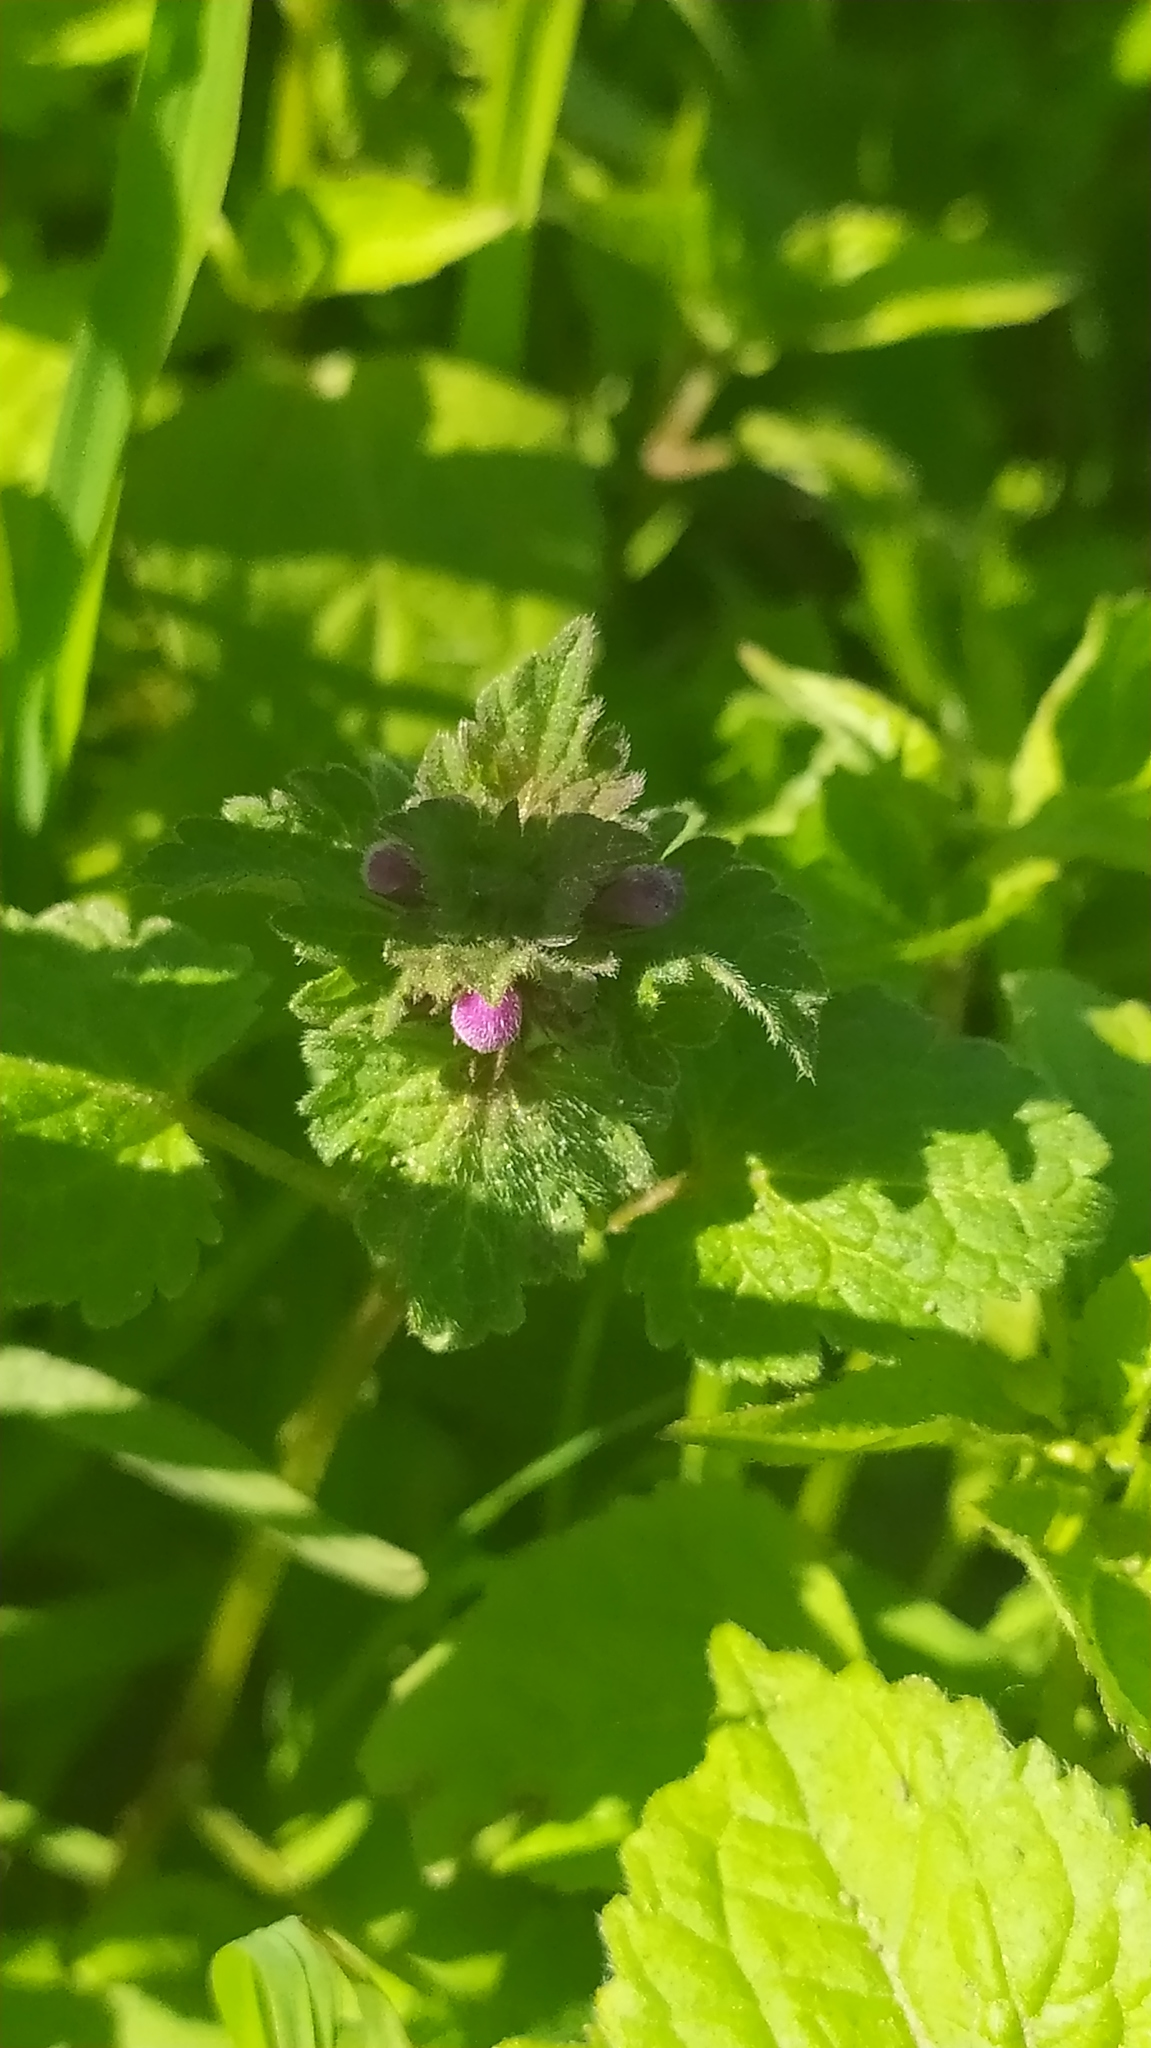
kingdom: Plantae
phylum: Tracheophyta
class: Magnoliopsida
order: Lamiales
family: Lamiaceae
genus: Lamium
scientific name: Lamium purpureum
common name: Red dead-nettle
